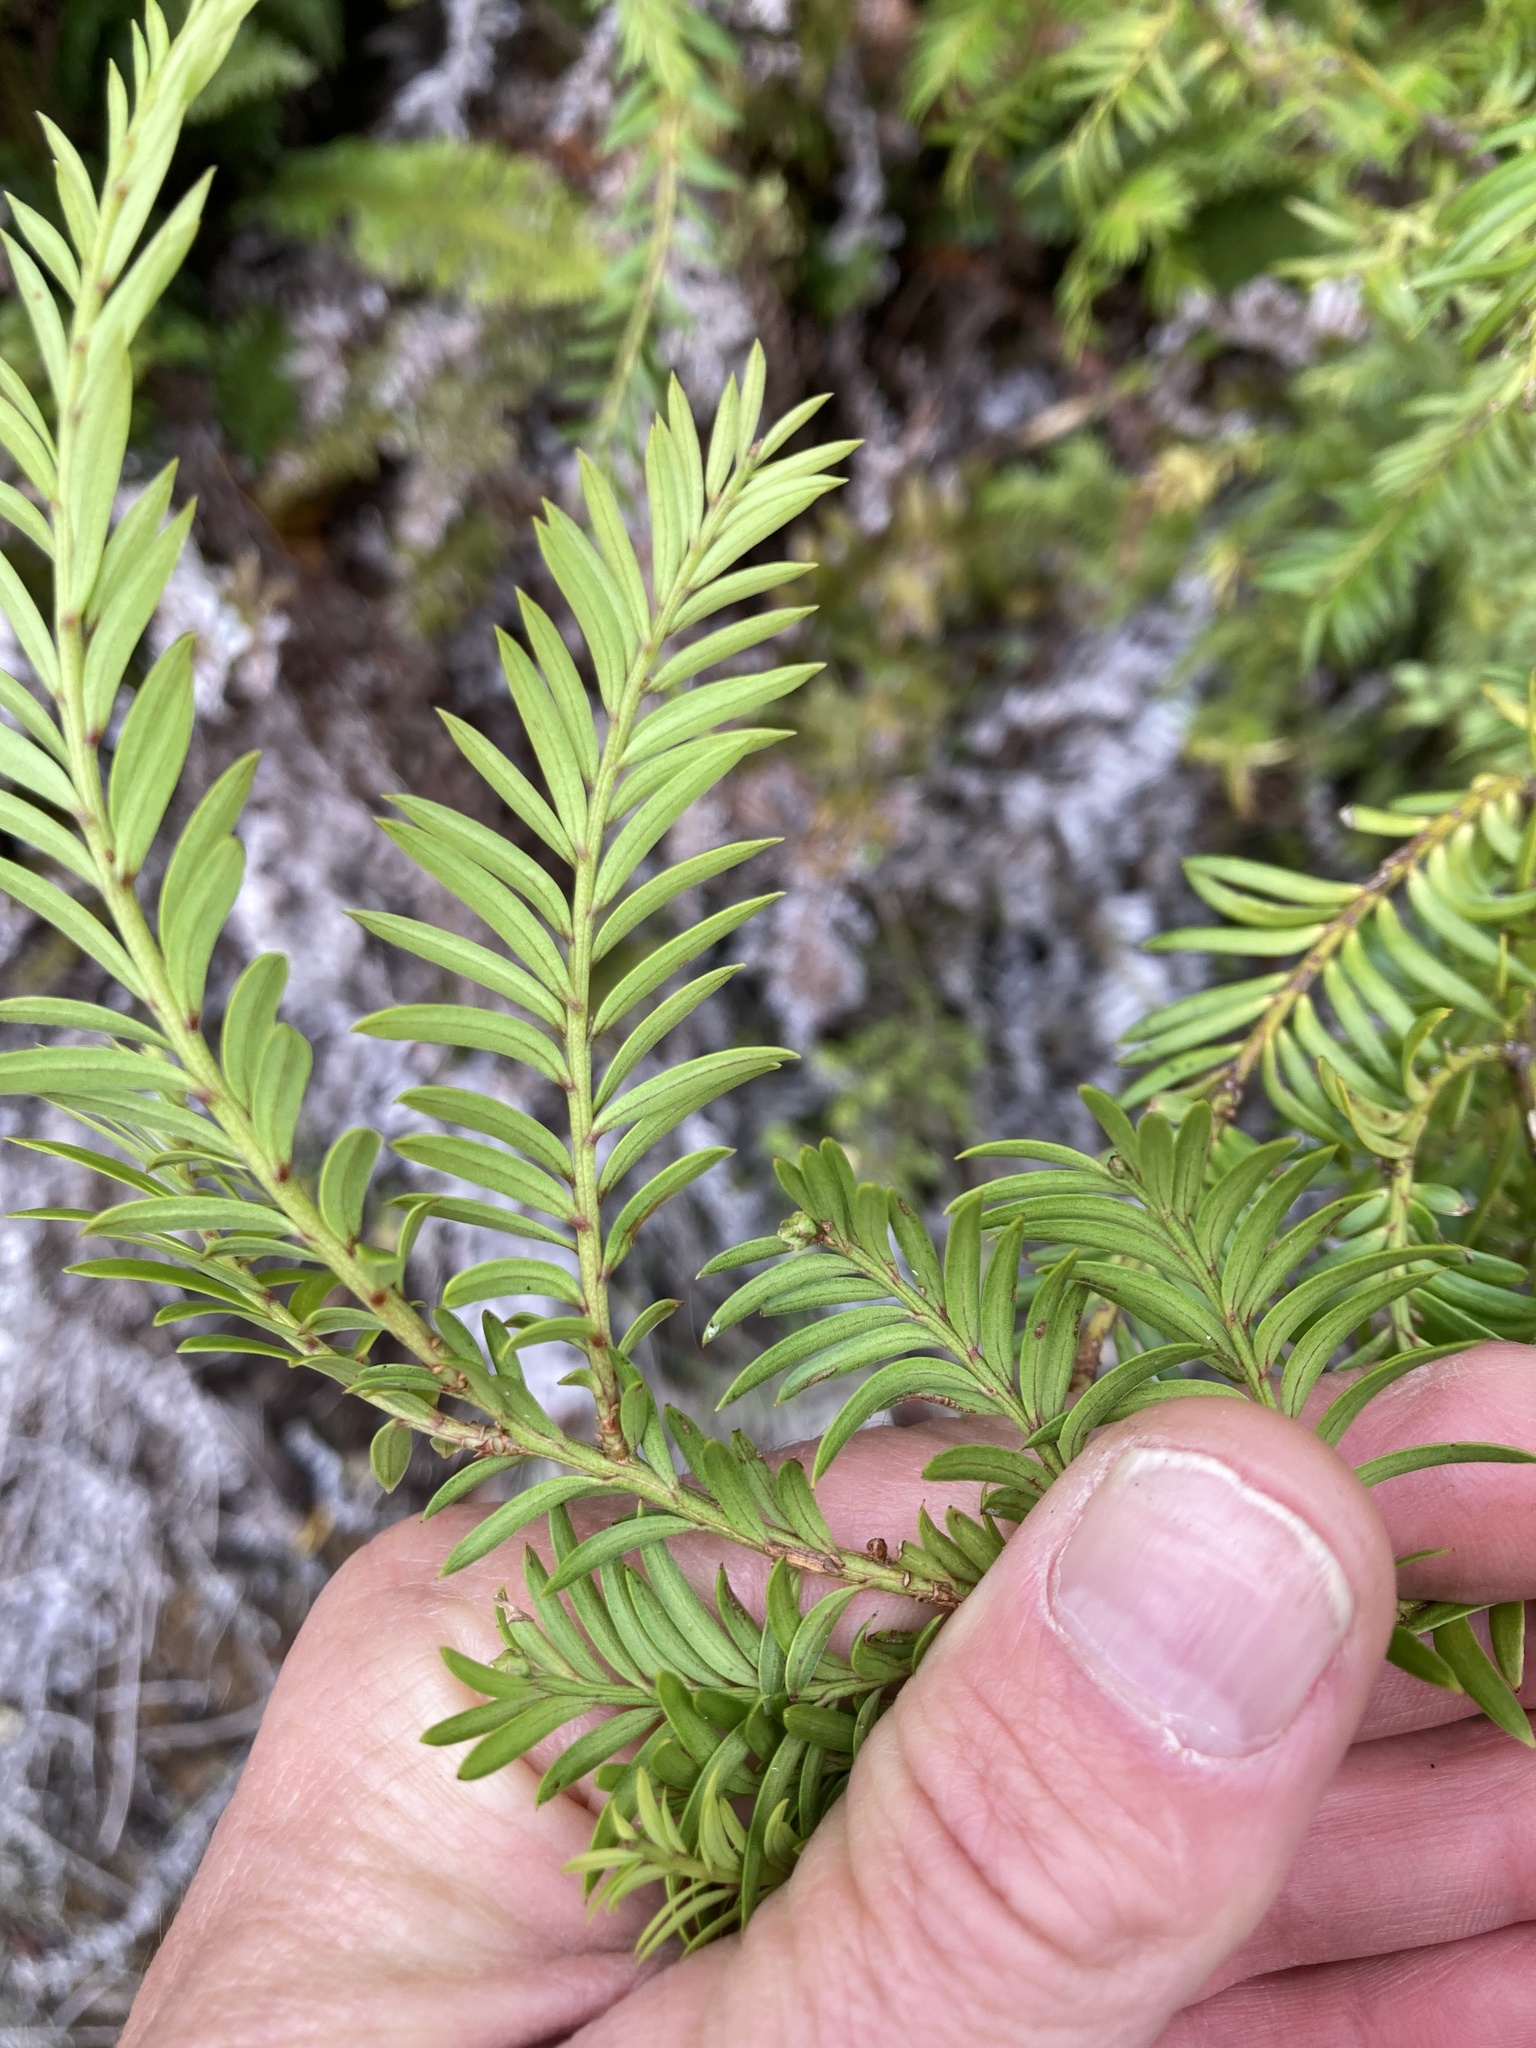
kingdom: Plantae
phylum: Tracheophyta
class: Pinopsida
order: Pinales
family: Podocarpaceae
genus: Prumnopitys
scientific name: Prumnopitys ferruginea
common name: Brown pine
